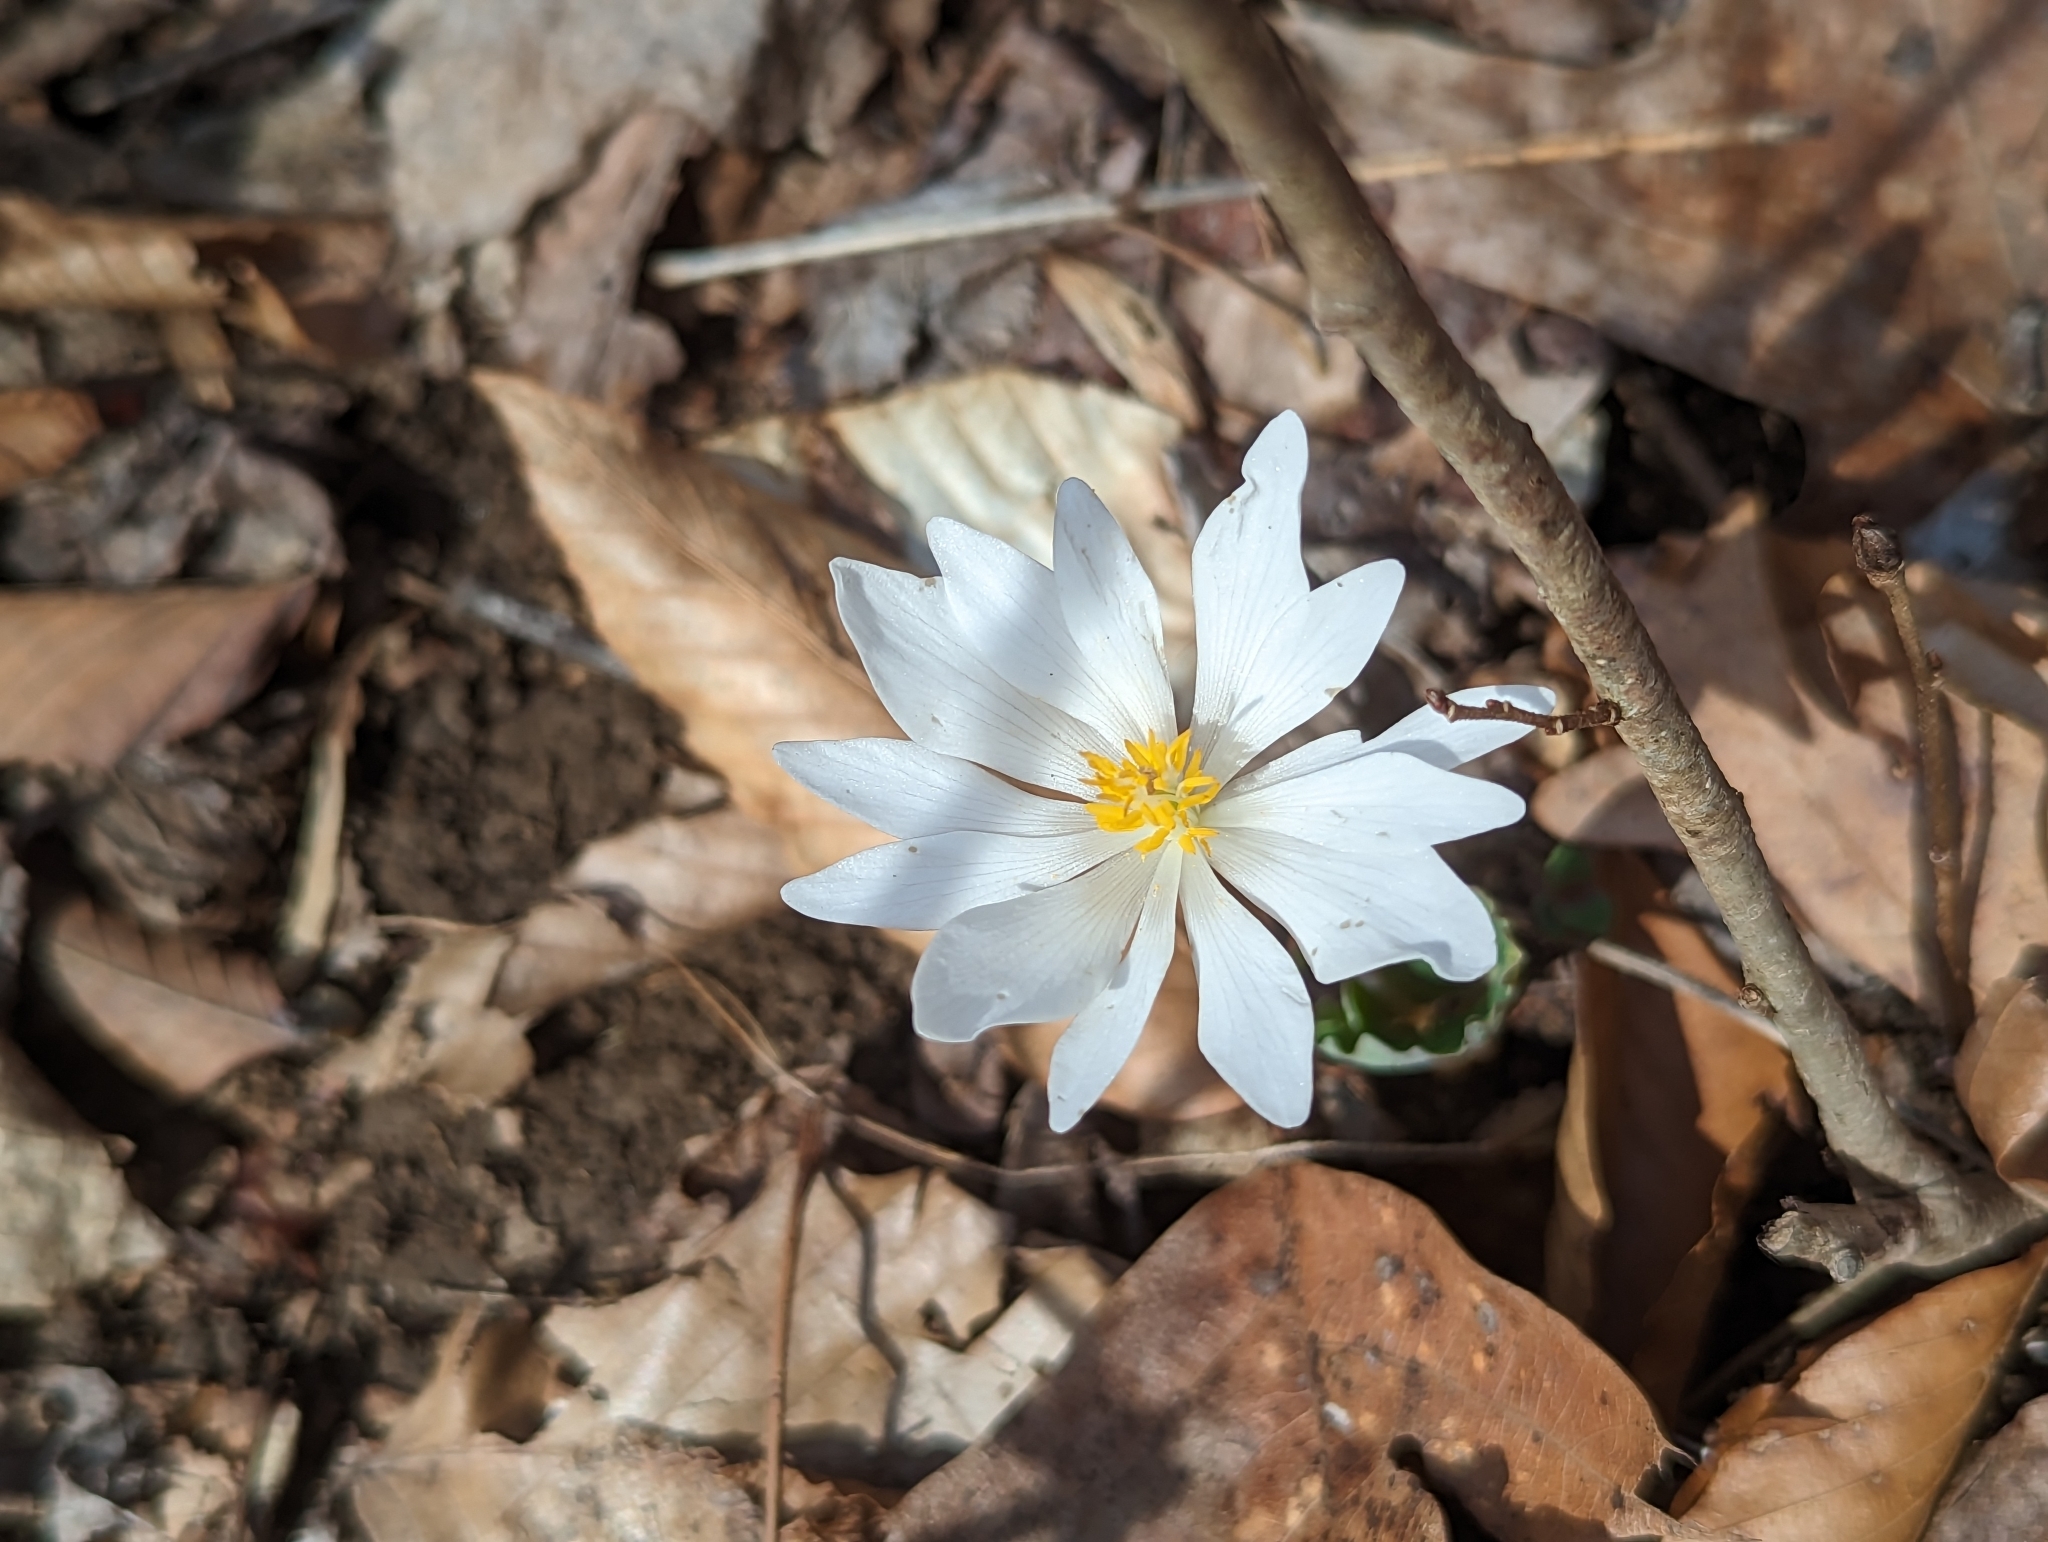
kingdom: Plantae
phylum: Tracheophyta
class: Magnoliopsida
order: Ranunculales
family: Papaveraceae
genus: Sanguinaria
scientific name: Sanguinaria canadensis
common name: Bloodroot
